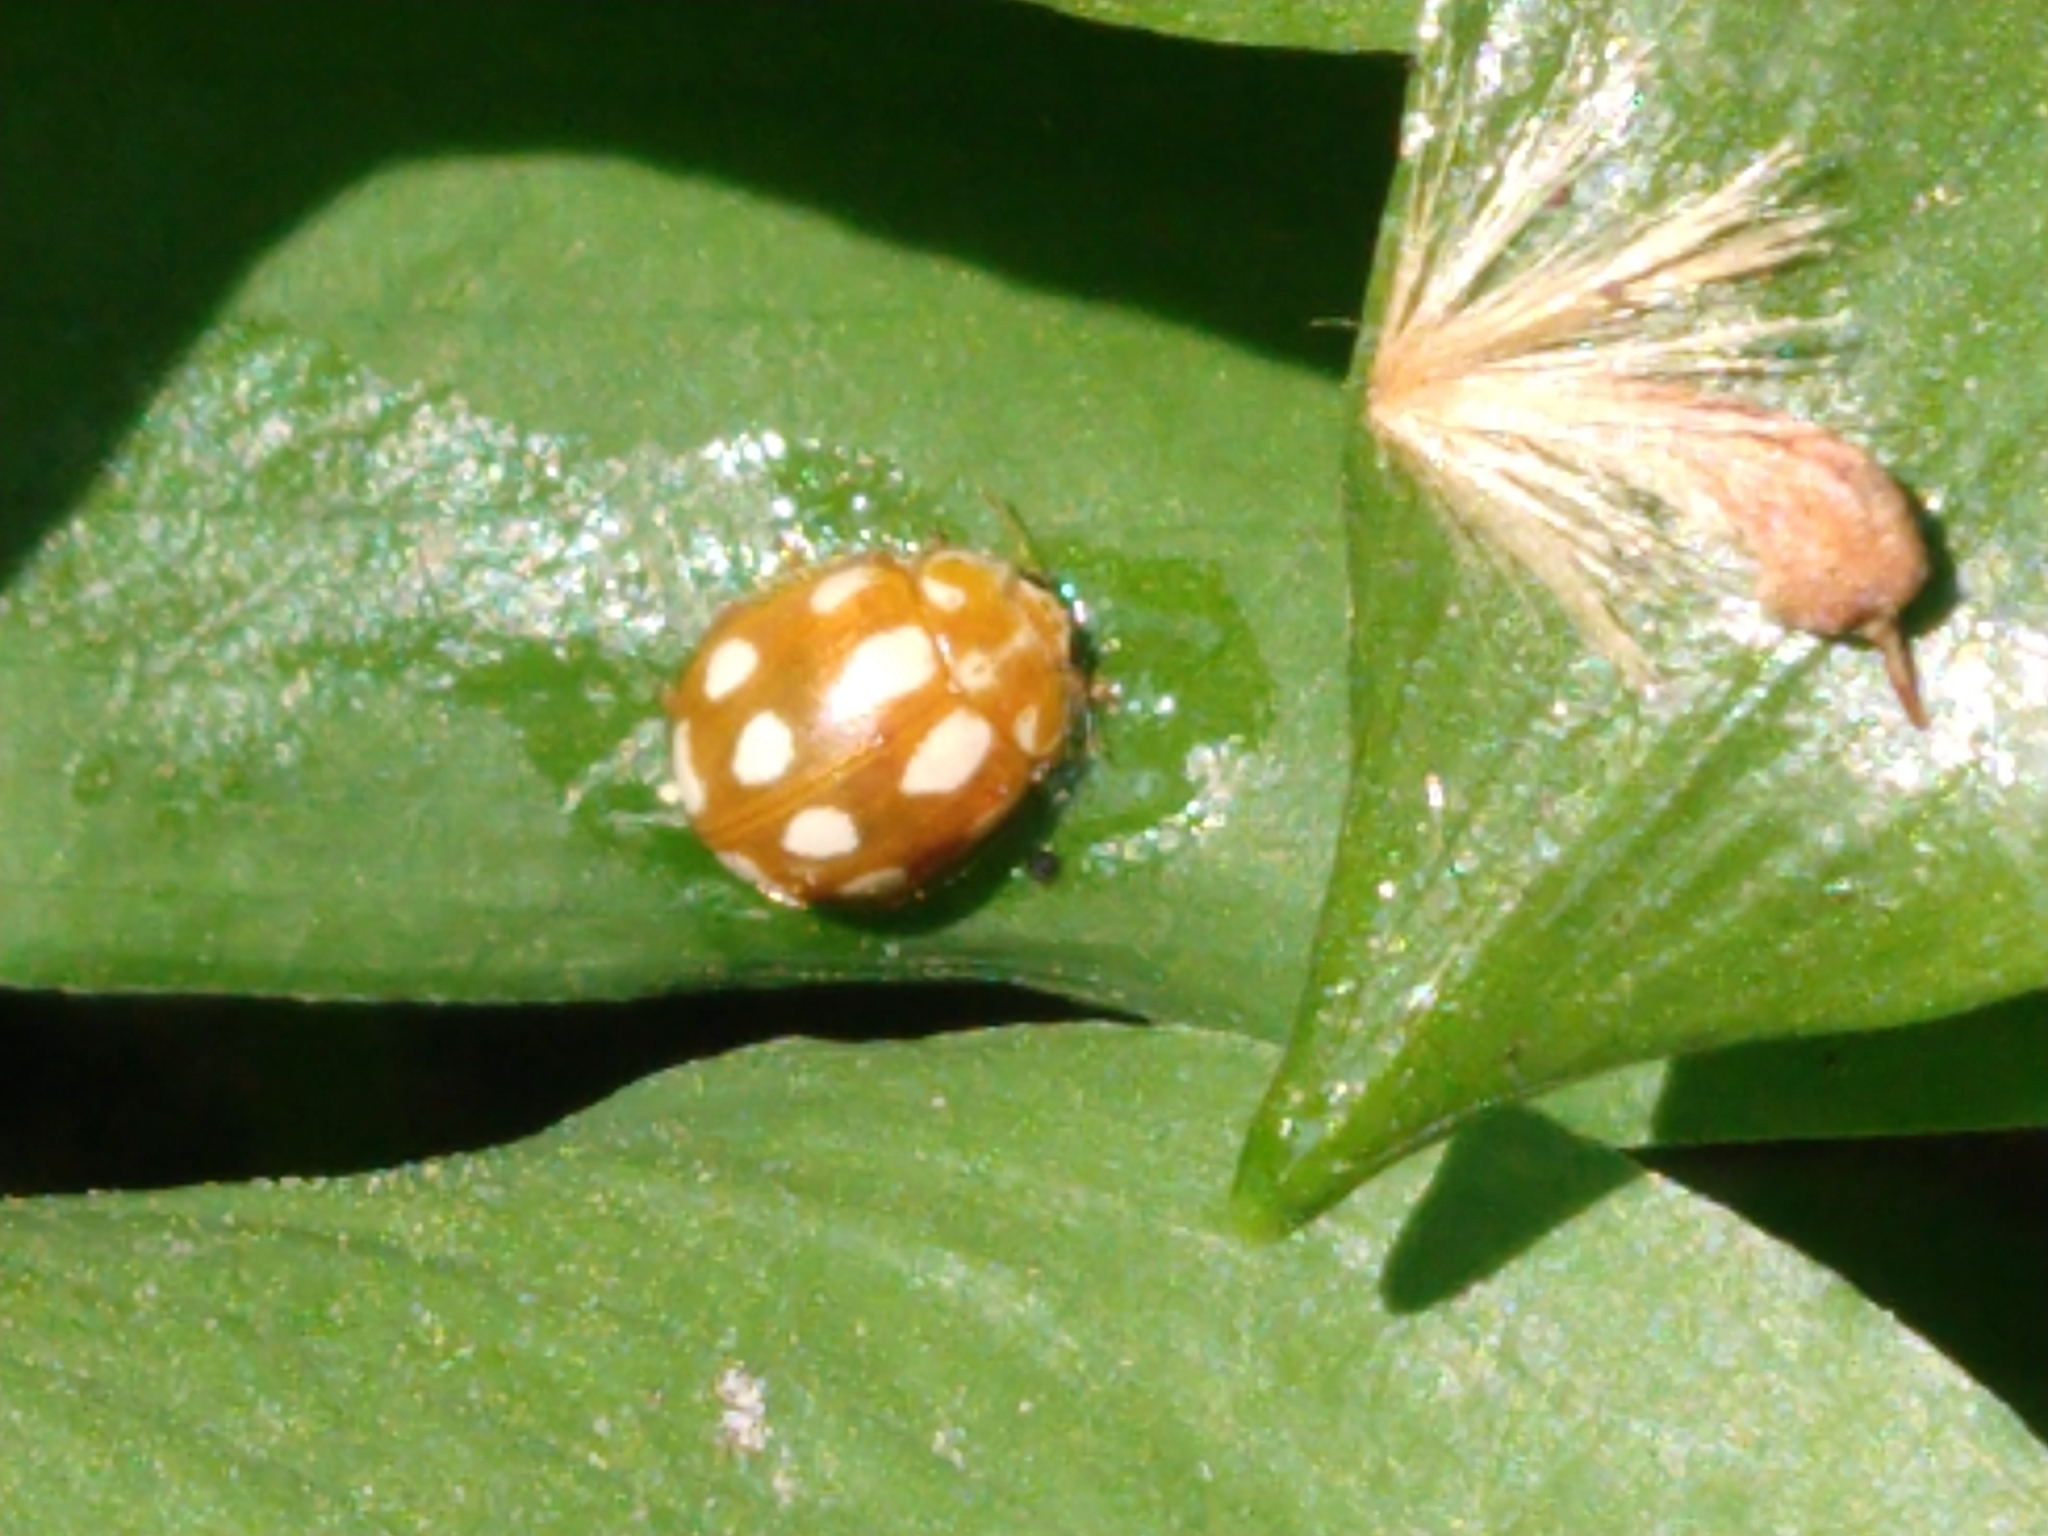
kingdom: Animalia
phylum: Arthropoda
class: Insecta
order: Coleoptera
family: Coccinellidae
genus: Calvia
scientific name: Calvia decemguttata
